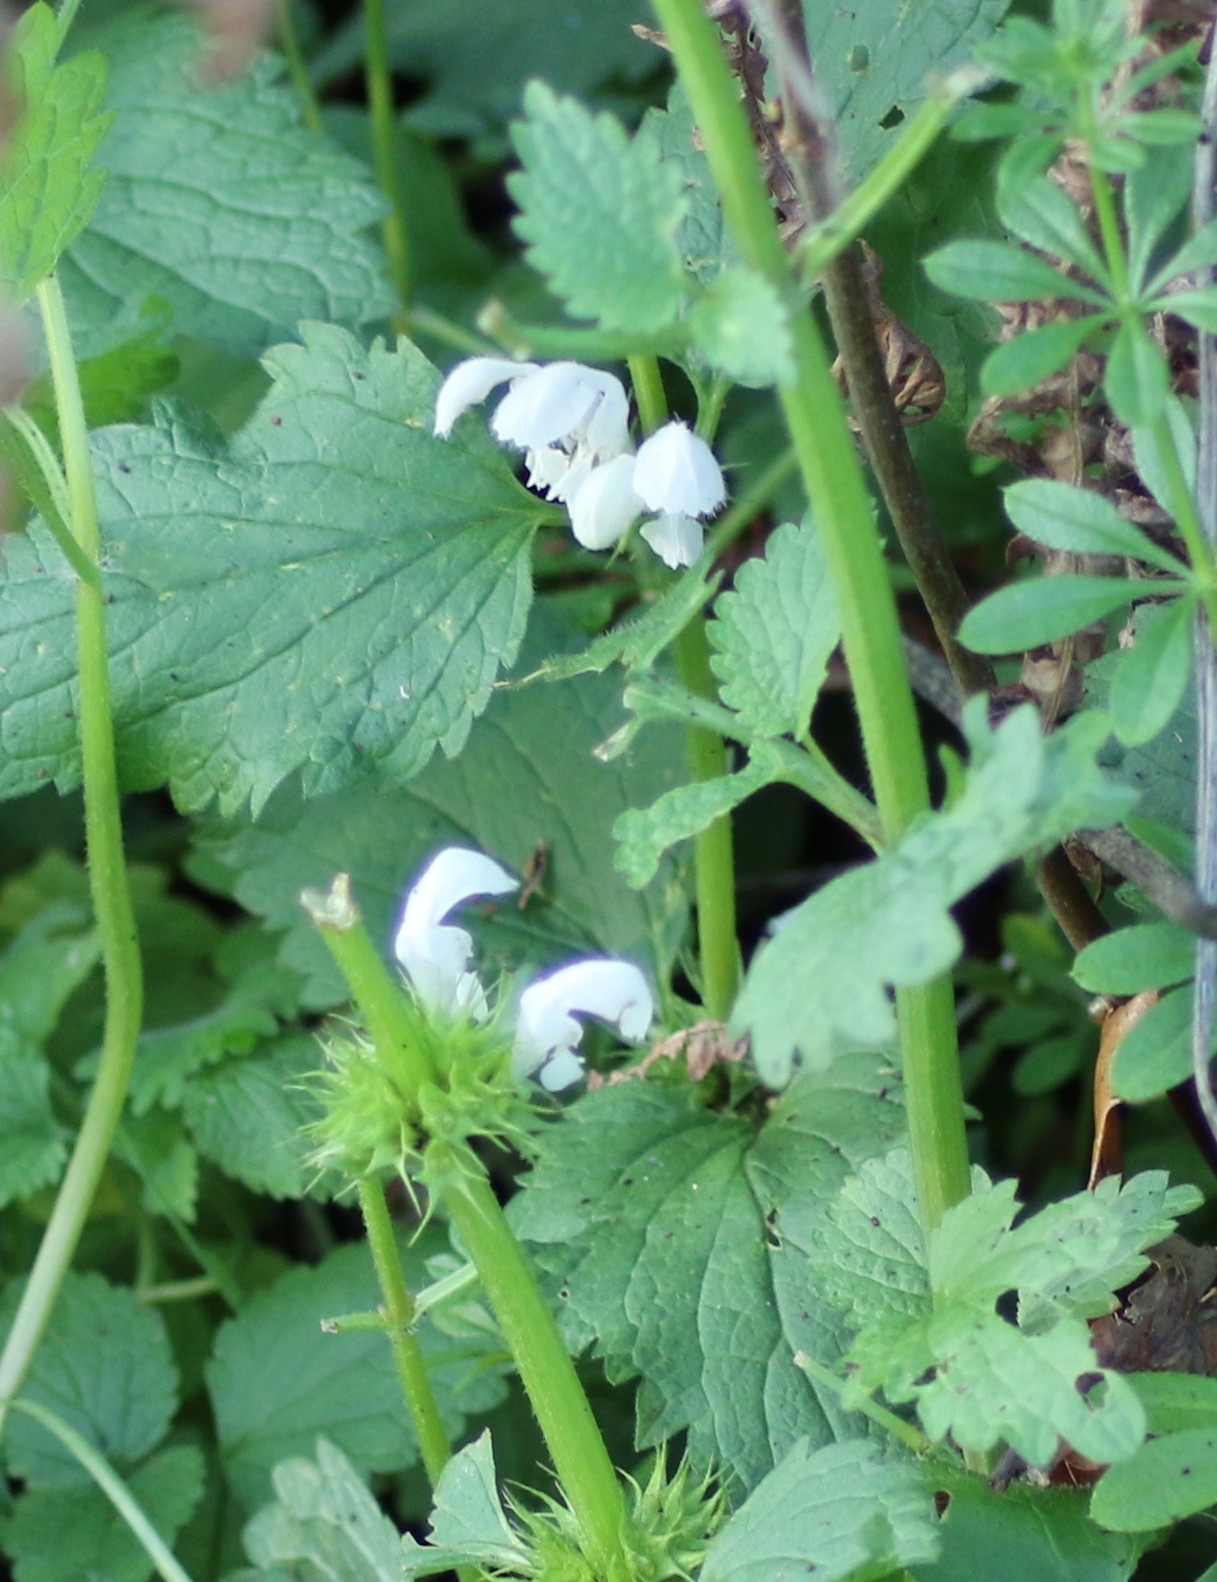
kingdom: Plantae
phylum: Tracheophyta
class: Magnoliopsida
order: Lamiales
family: Lamiaceae
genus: Lamium
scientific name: Lamium album
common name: White dead-nettle
